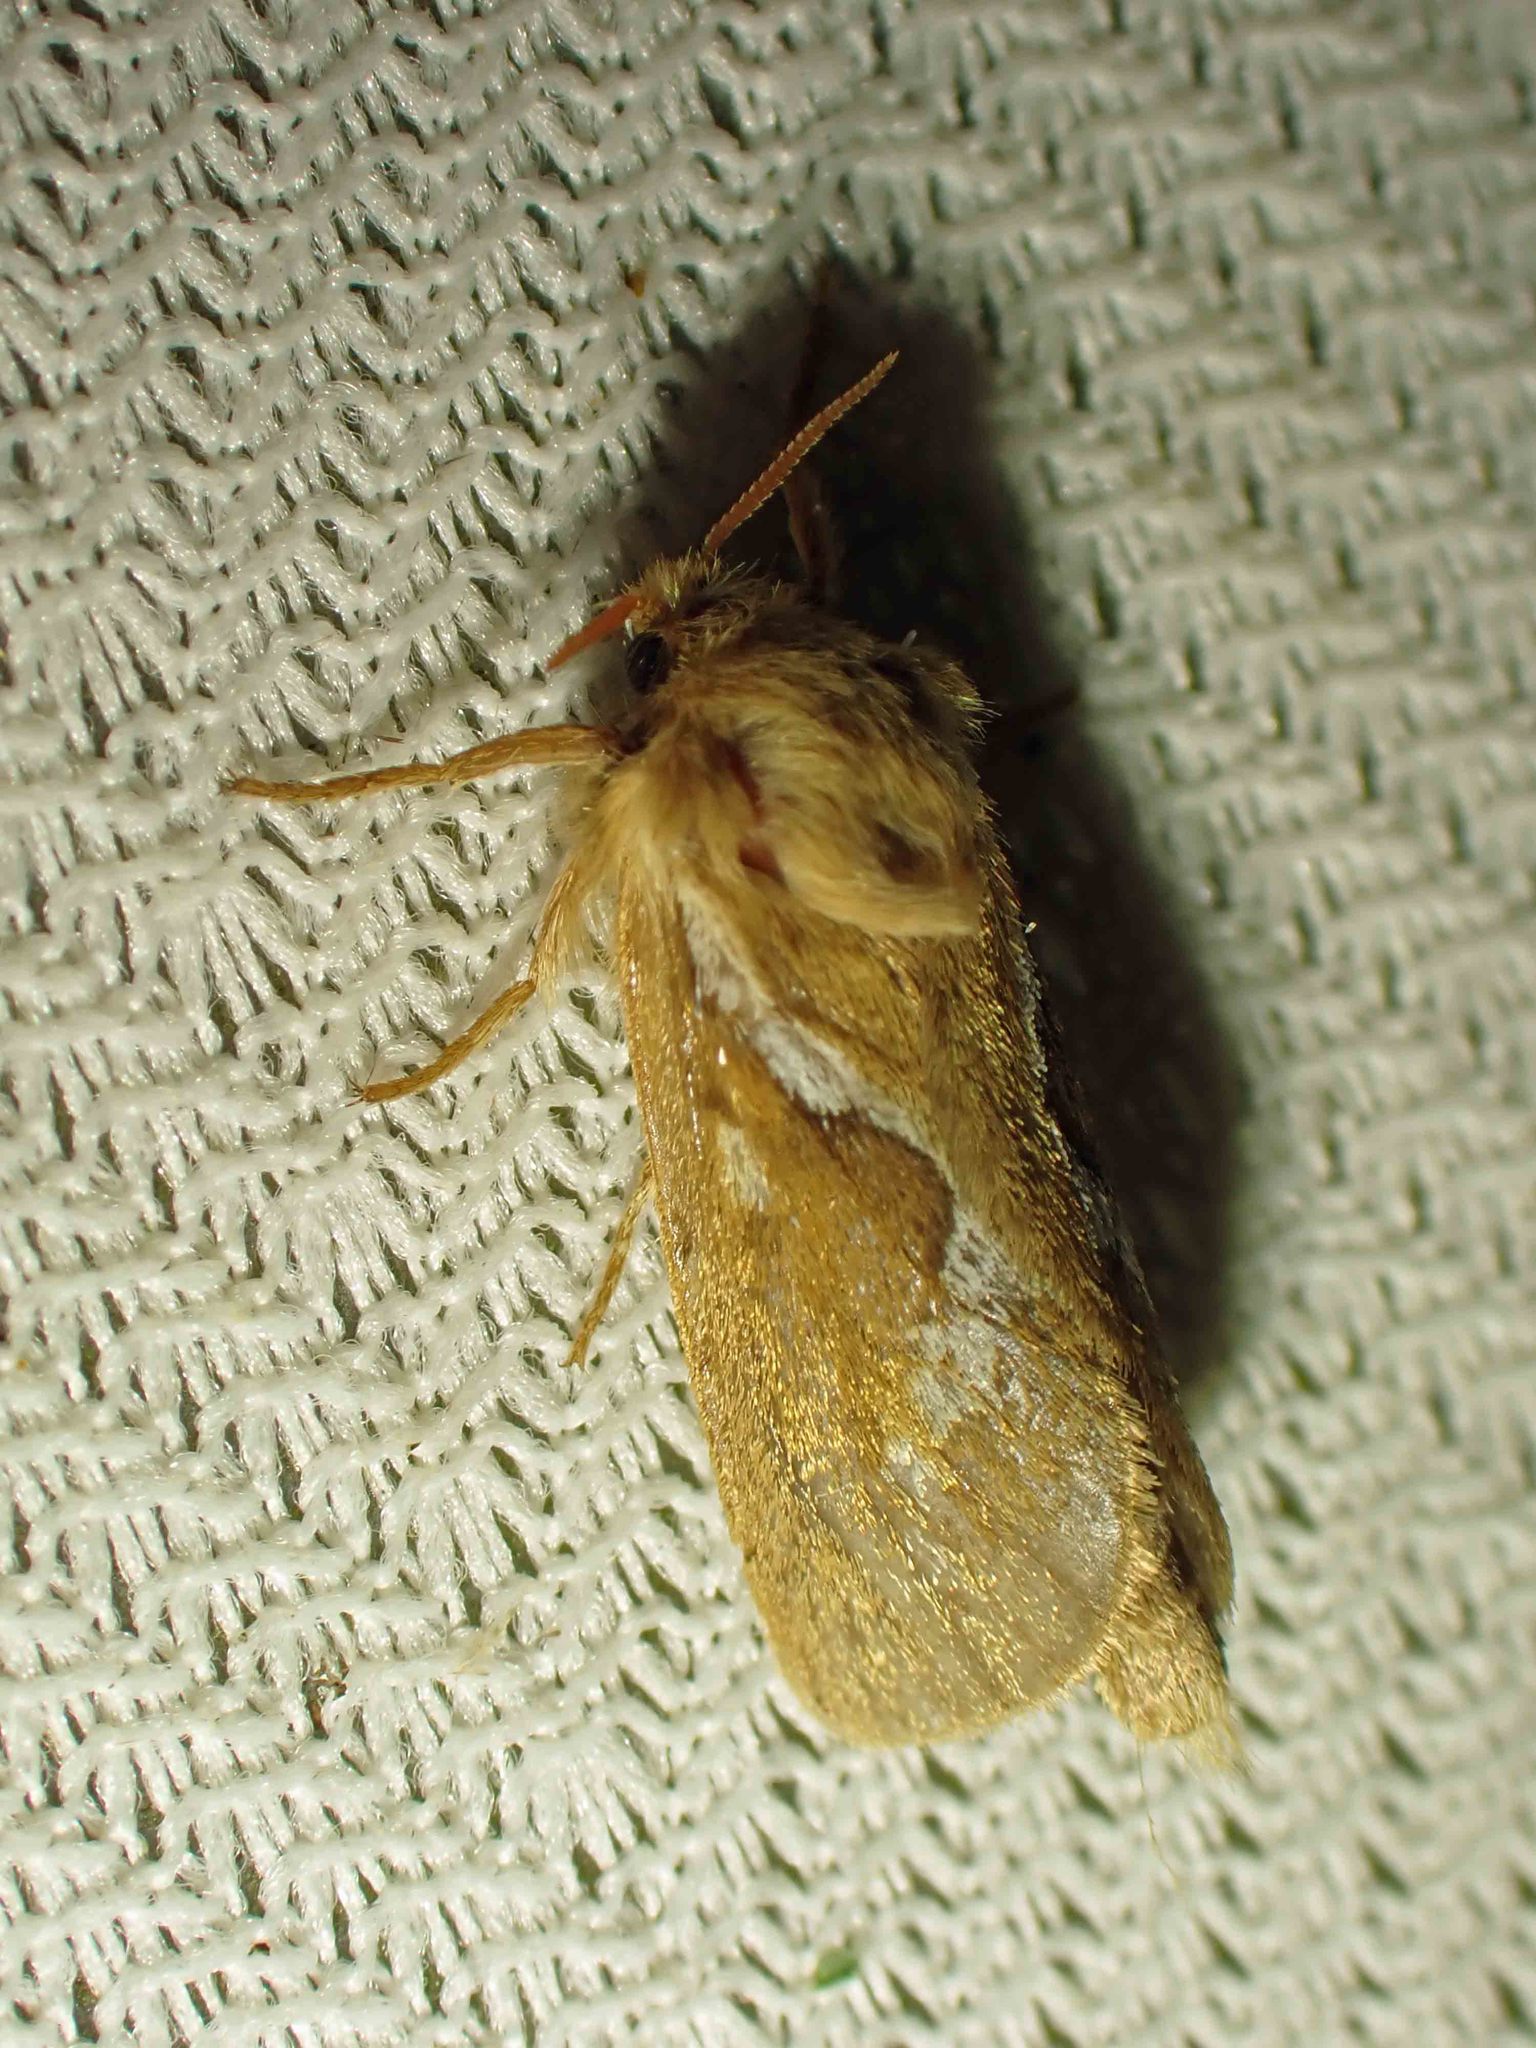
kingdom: Animalia
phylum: Arthropoda
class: Insecta
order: Lepidoptera
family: Hepialidae
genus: Korscheltellus
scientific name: Korscheltellus lupulina
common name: Common swift
